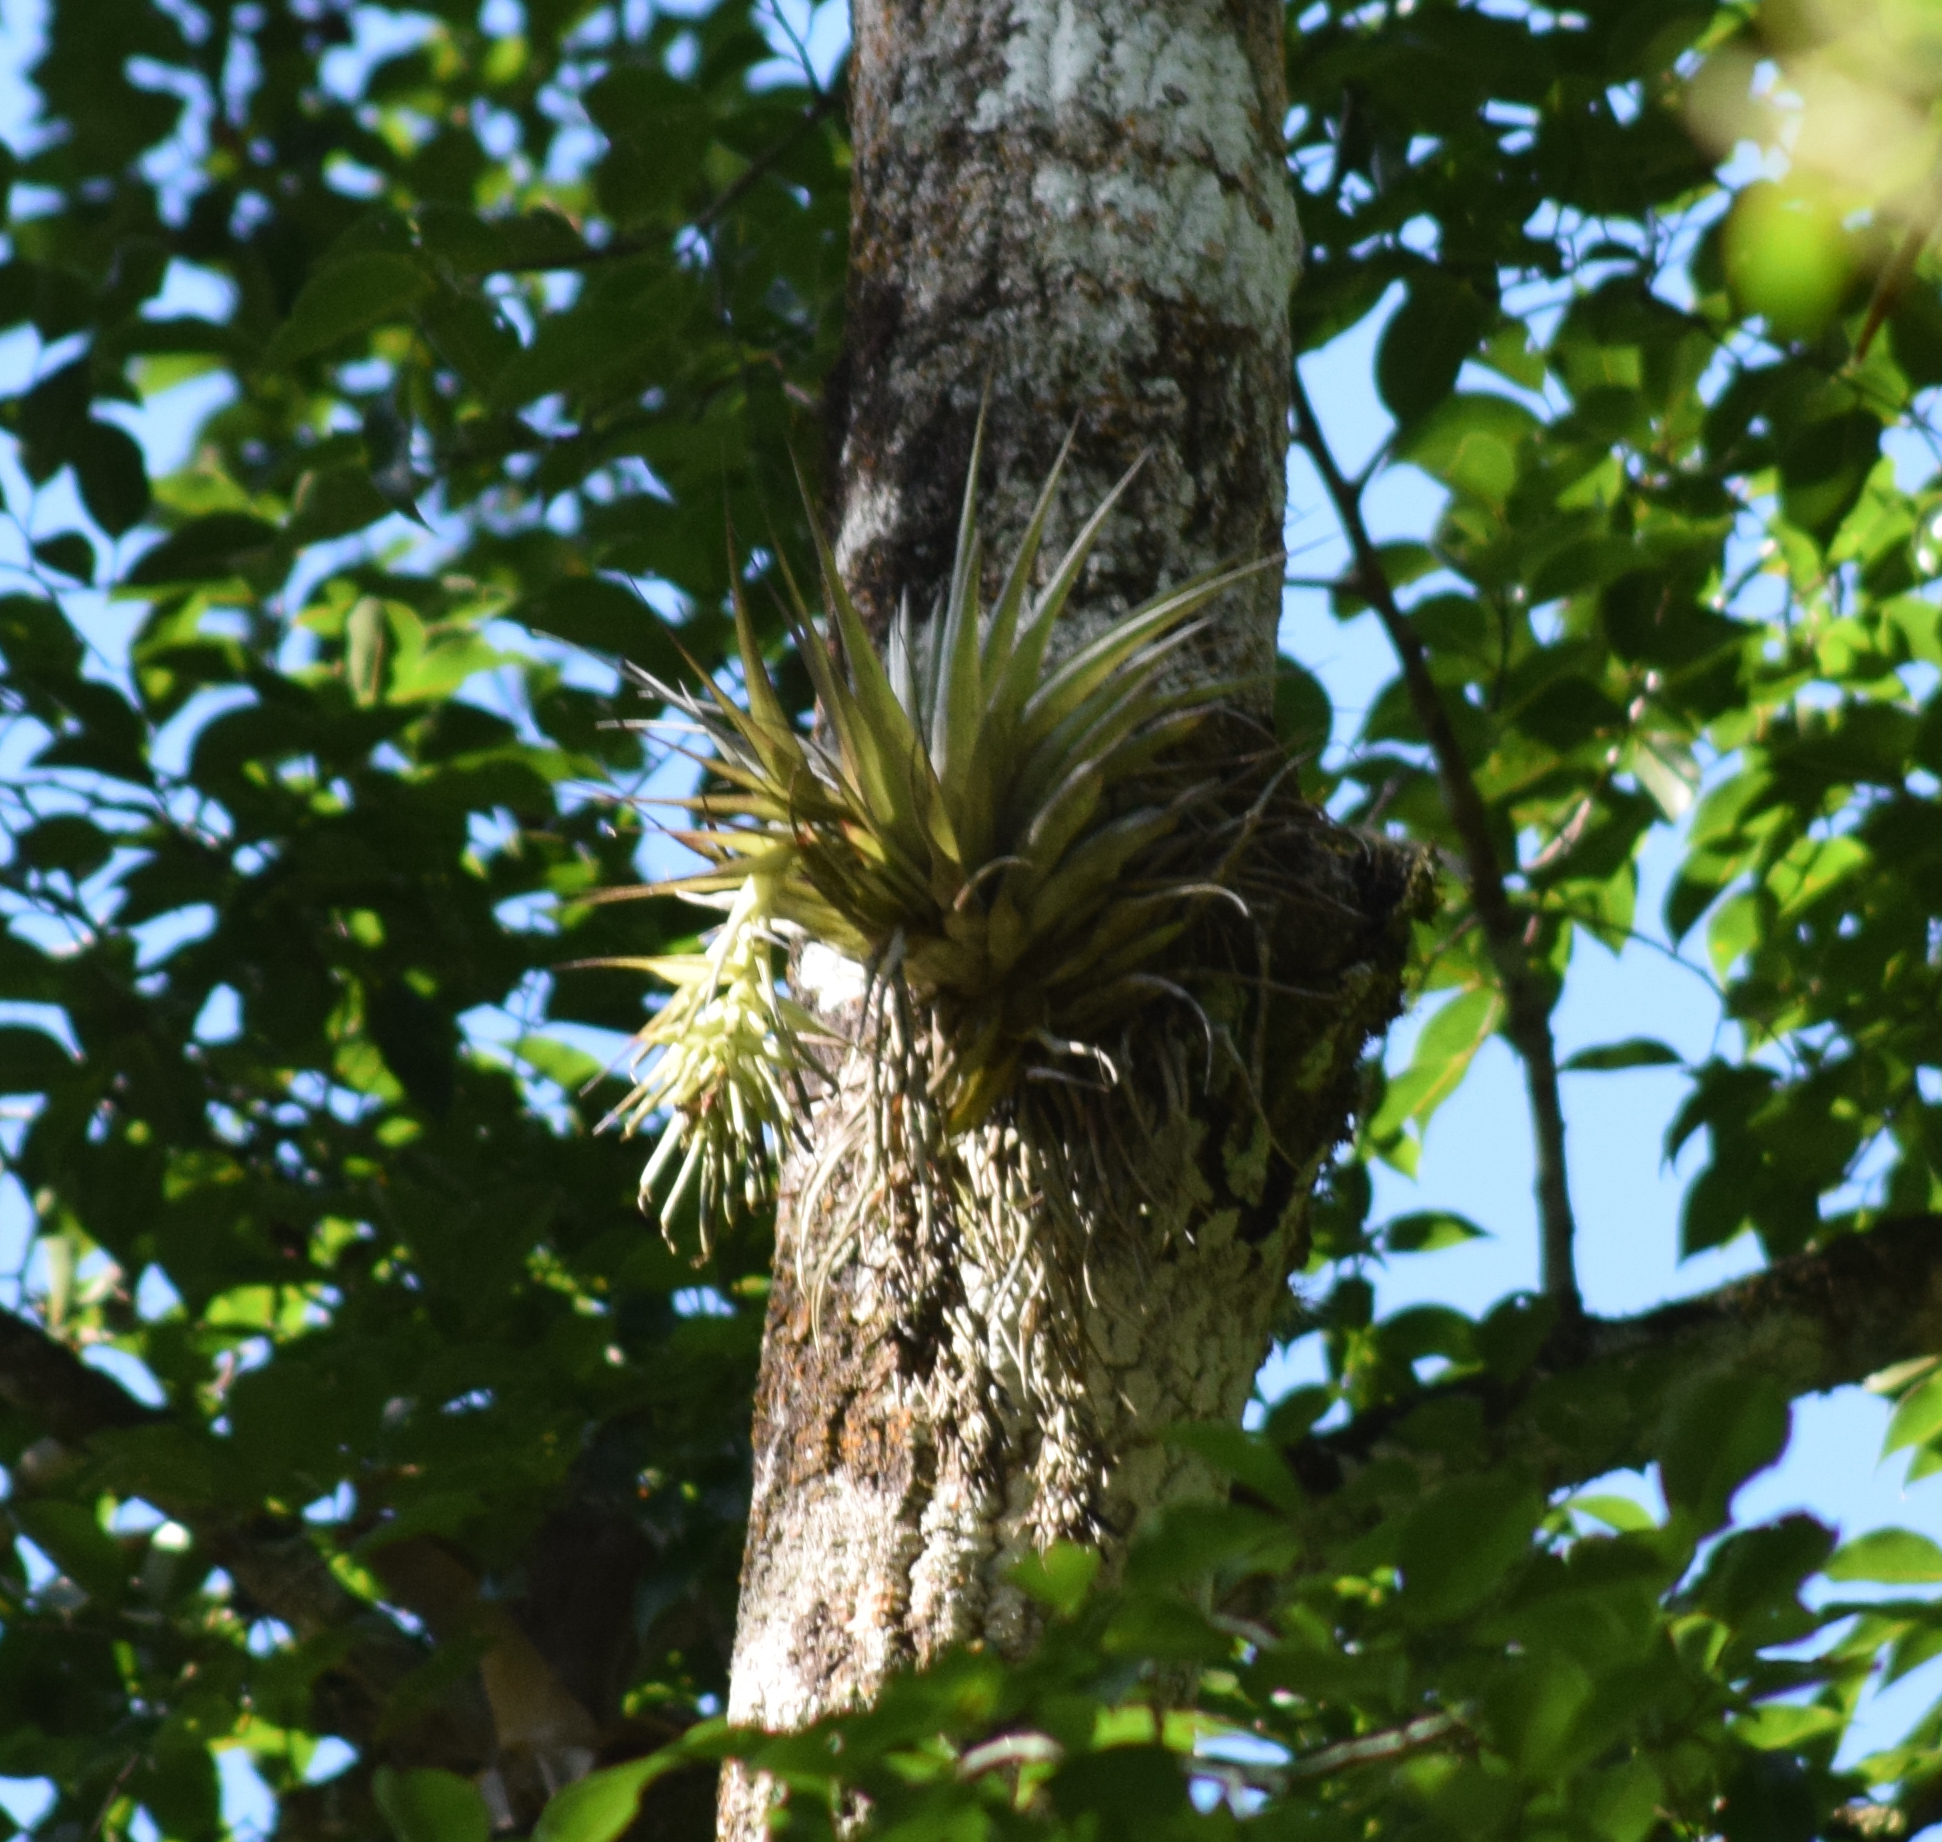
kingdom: Plantae
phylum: Tracheophyta
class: Liliopsida
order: Poales
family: Bromeliaceae
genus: Tillandsia
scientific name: Tillandsia geminiflora
